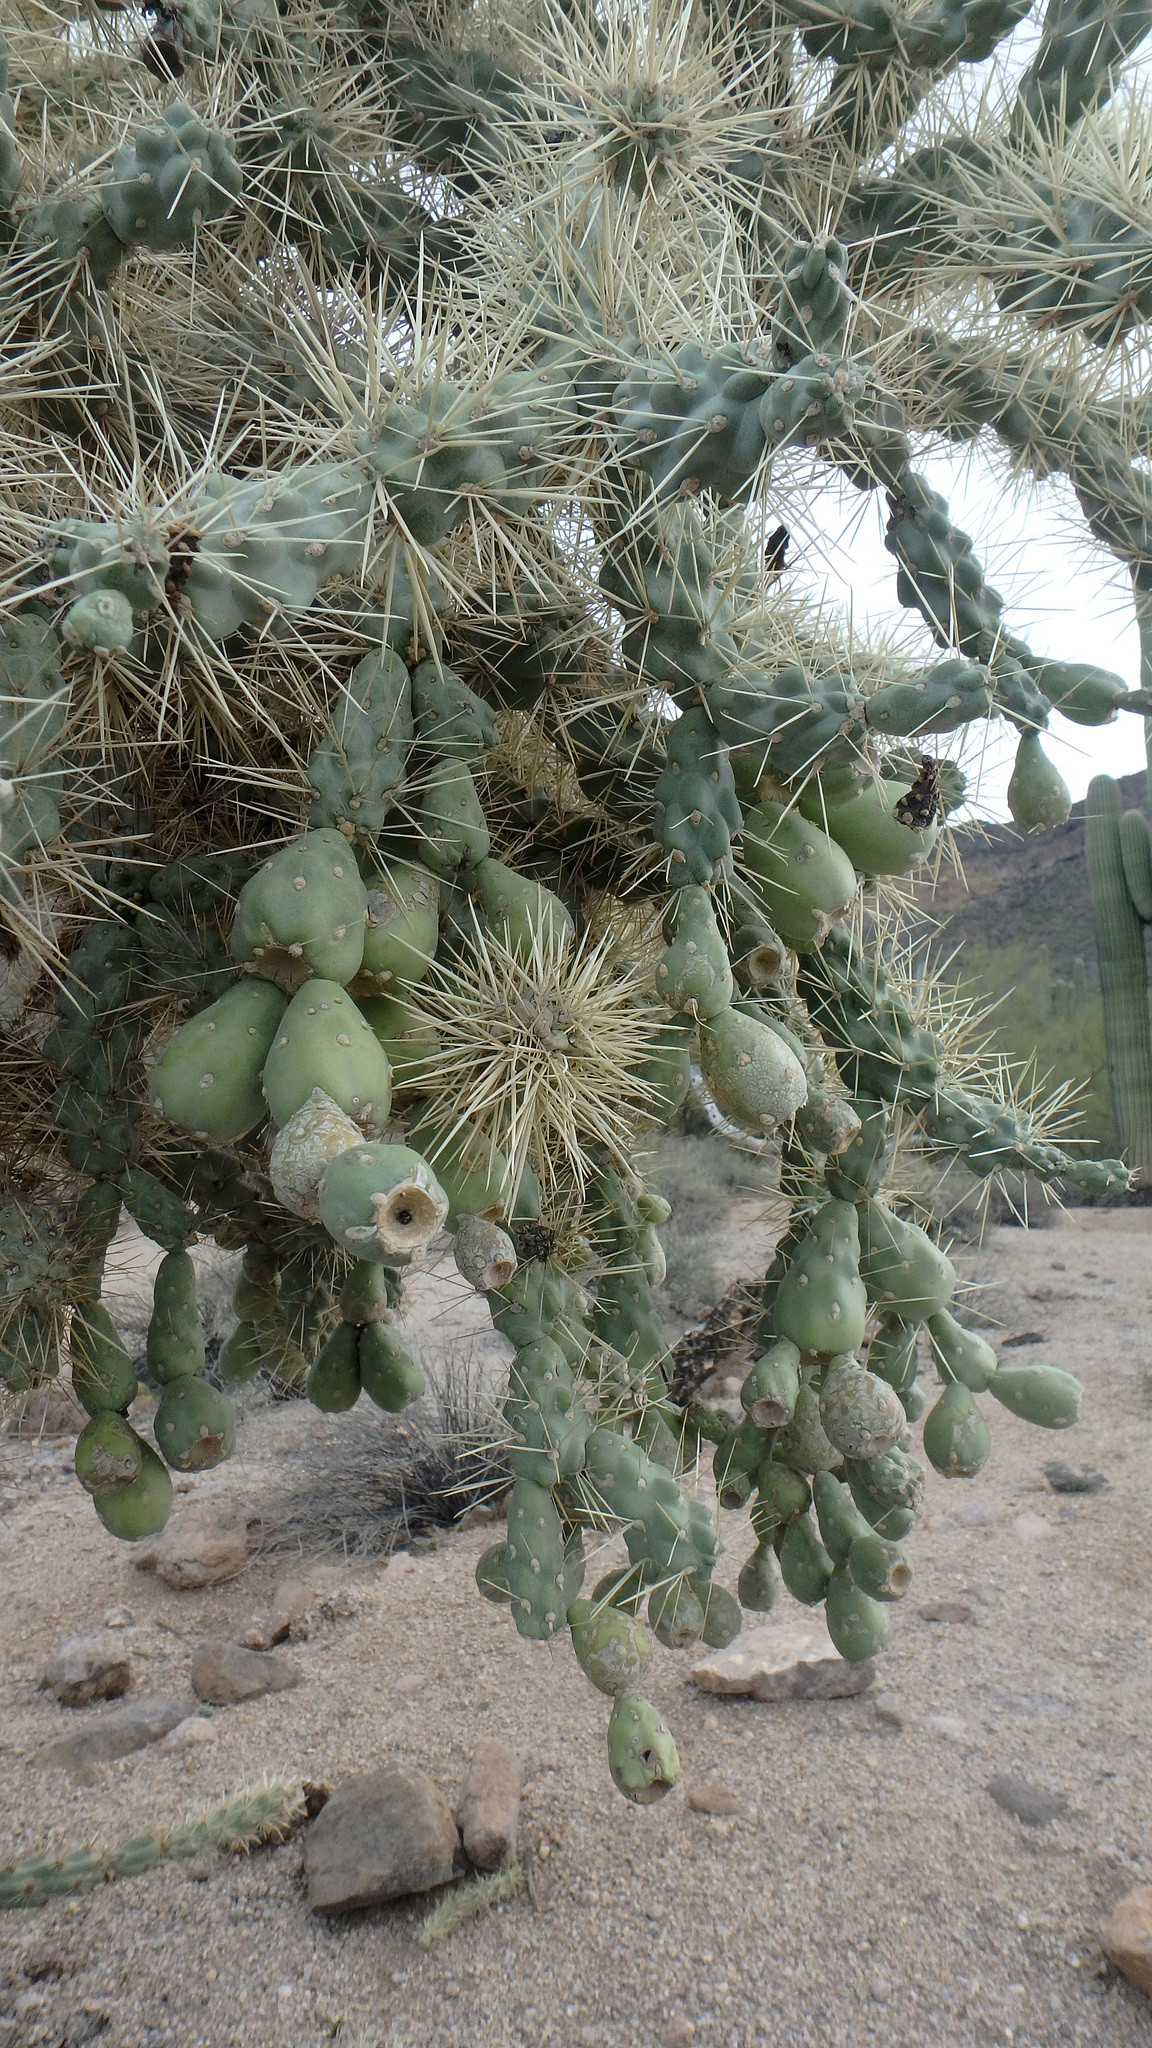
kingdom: Plantae
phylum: Tracheophyta
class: Magnoliopsida
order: Caryophyllales
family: Cactaceae
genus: Cylindropuntia
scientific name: Cylindropuntia fulgida
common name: Jumping cholla
